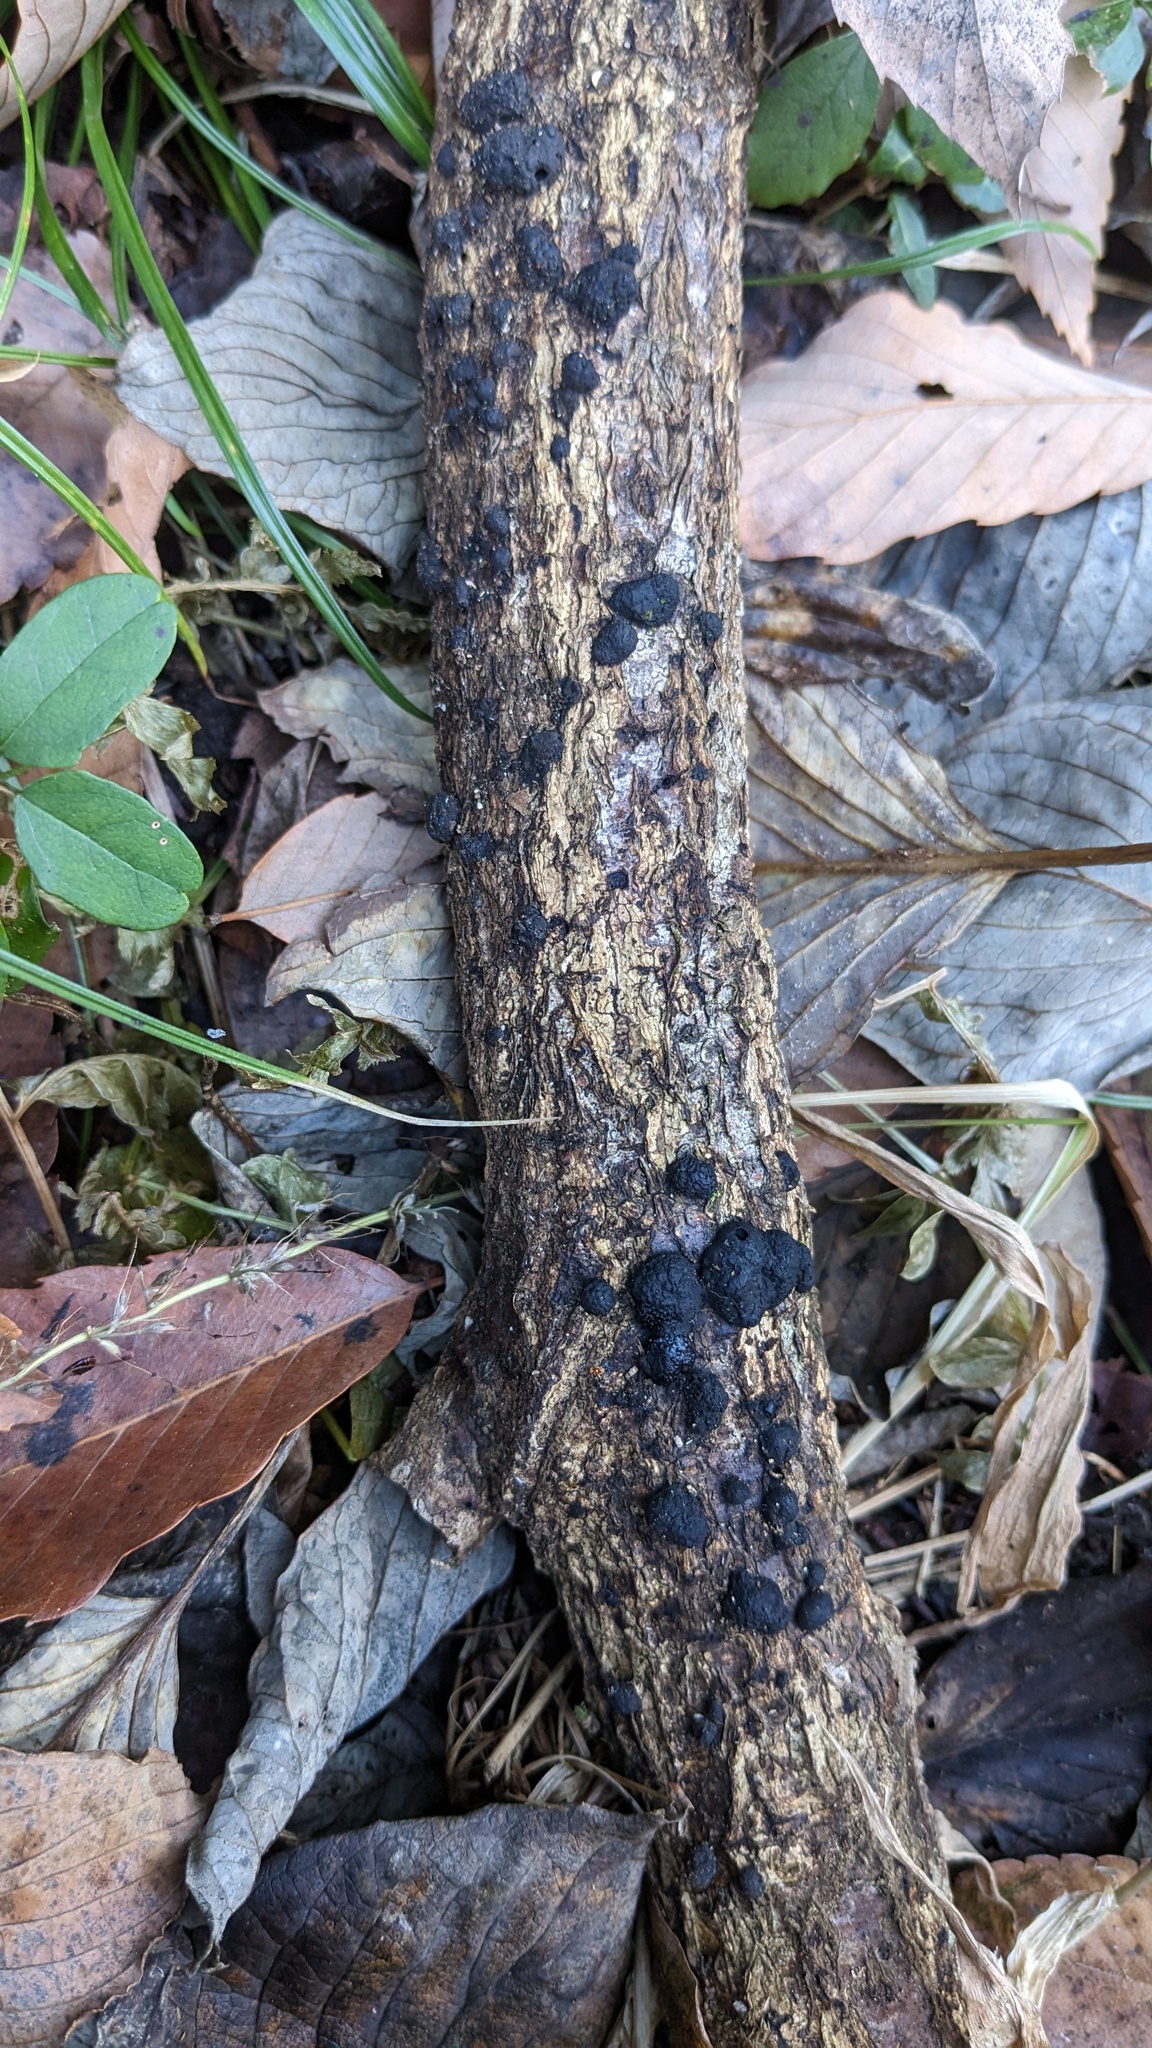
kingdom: Fungi
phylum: Ascomycota
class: Sordariomycetes
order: Xylariales
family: Hypoxylaceae
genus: Annulohypoxylon
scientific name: Annulohypoxylon truncatum
